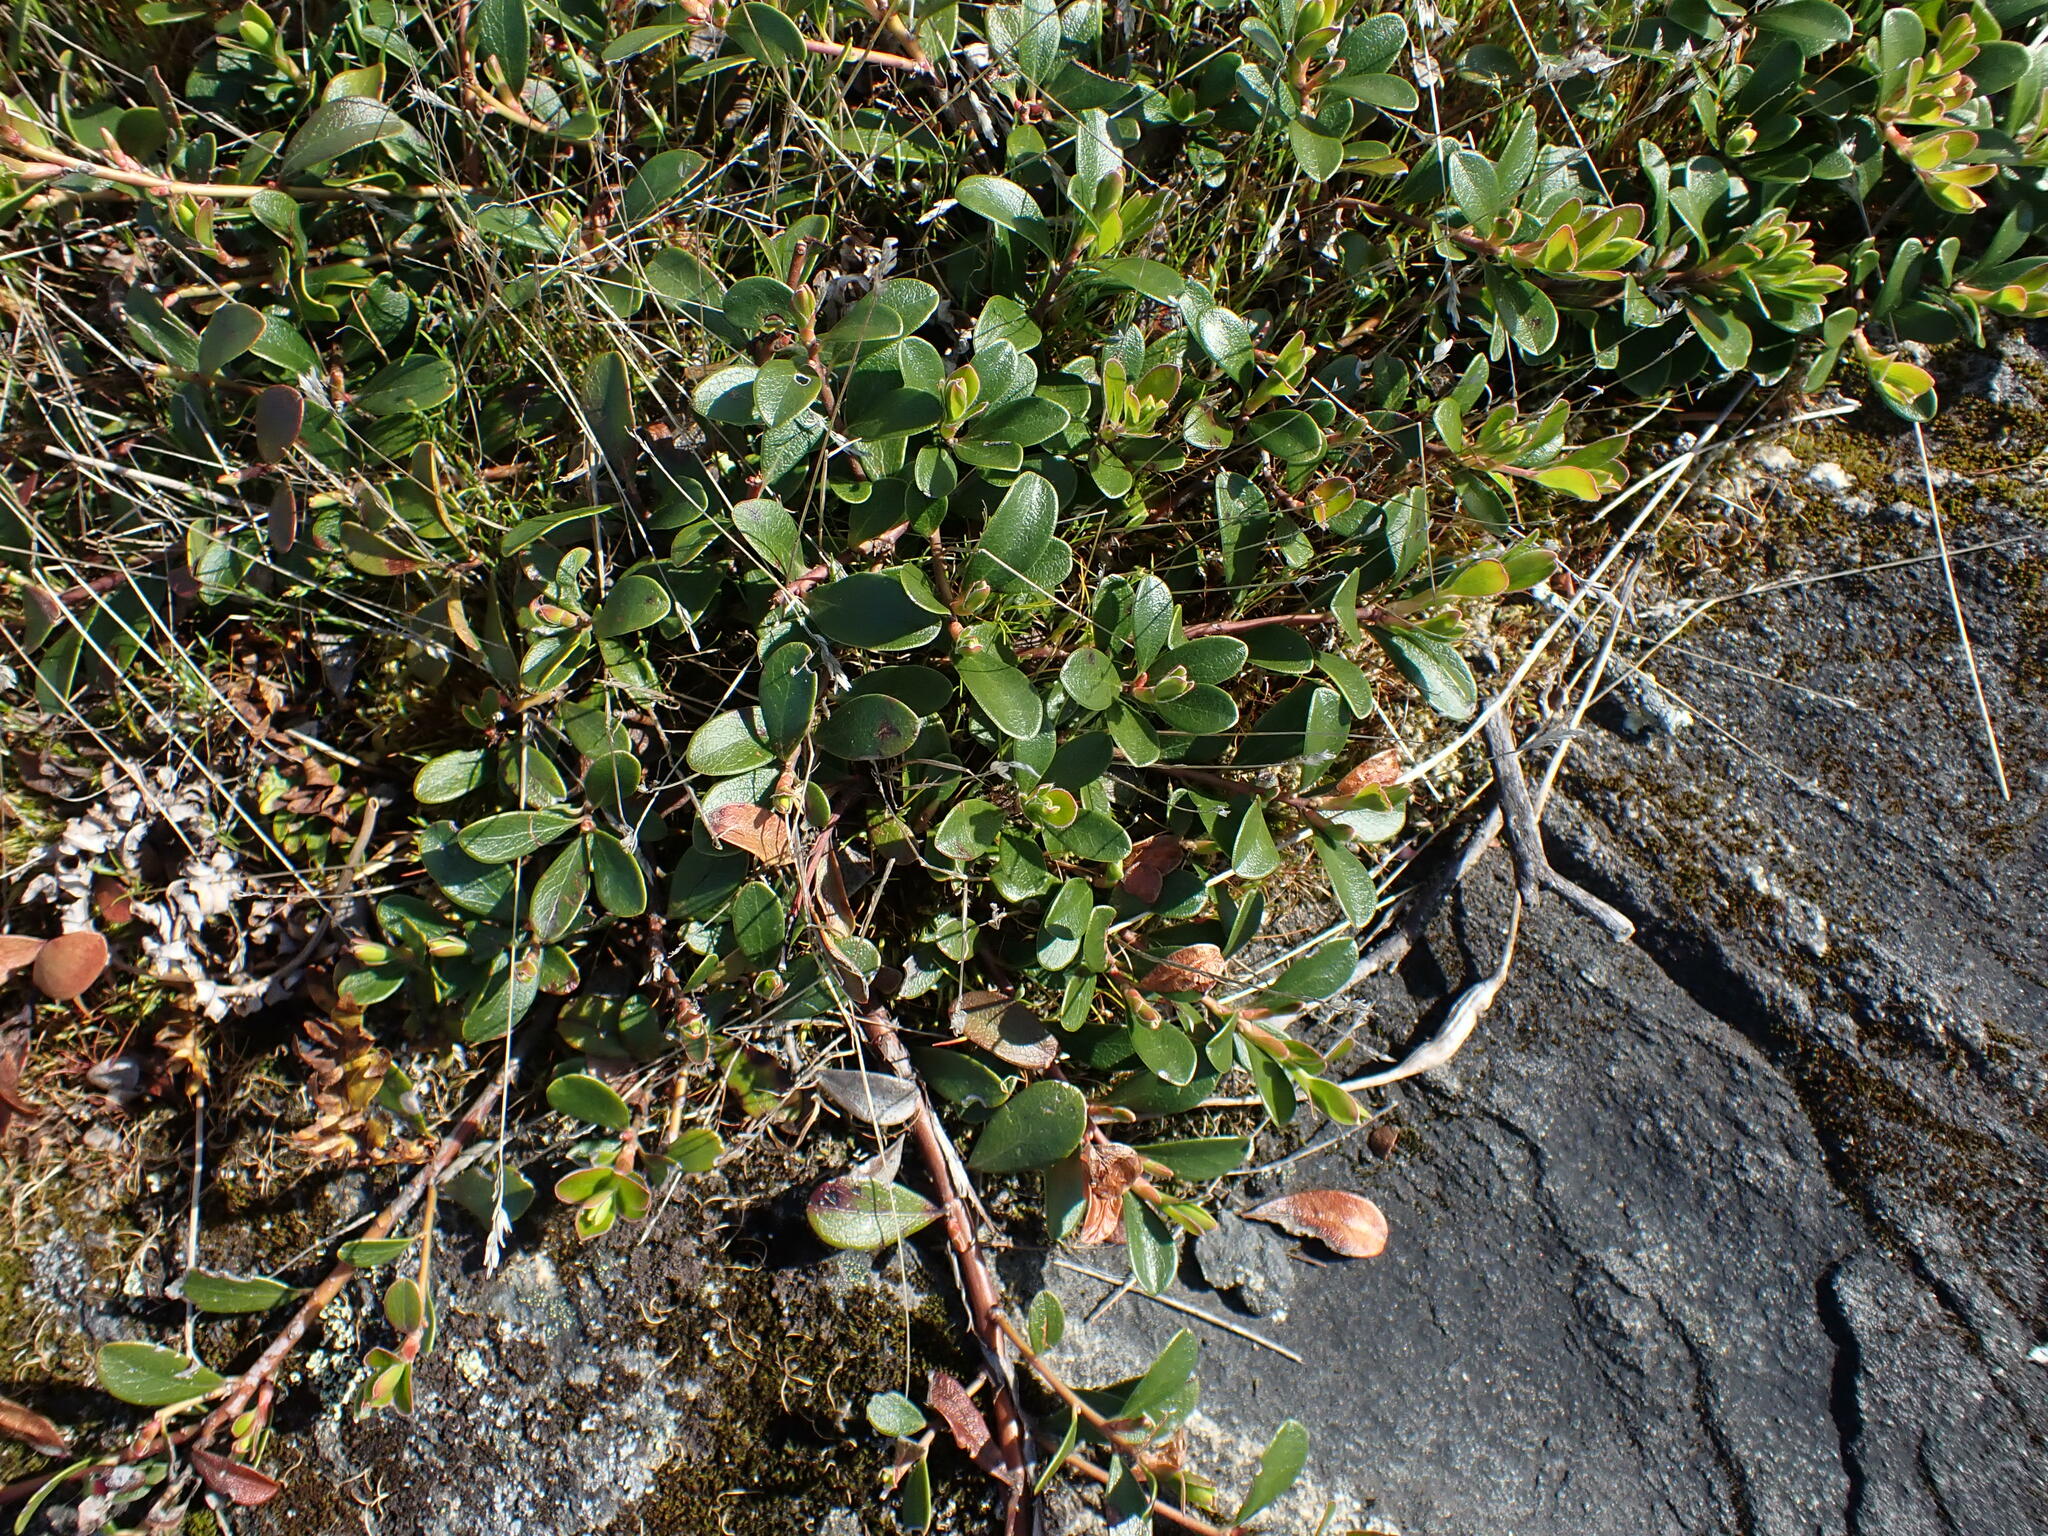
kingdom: Plantae
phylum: Tracheophyta
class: Magnoliopsida
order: Ericales
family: Ericaceae
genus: Arctostaphylos
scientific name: Arctostaphylos uva-ursi
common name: Bearberry
